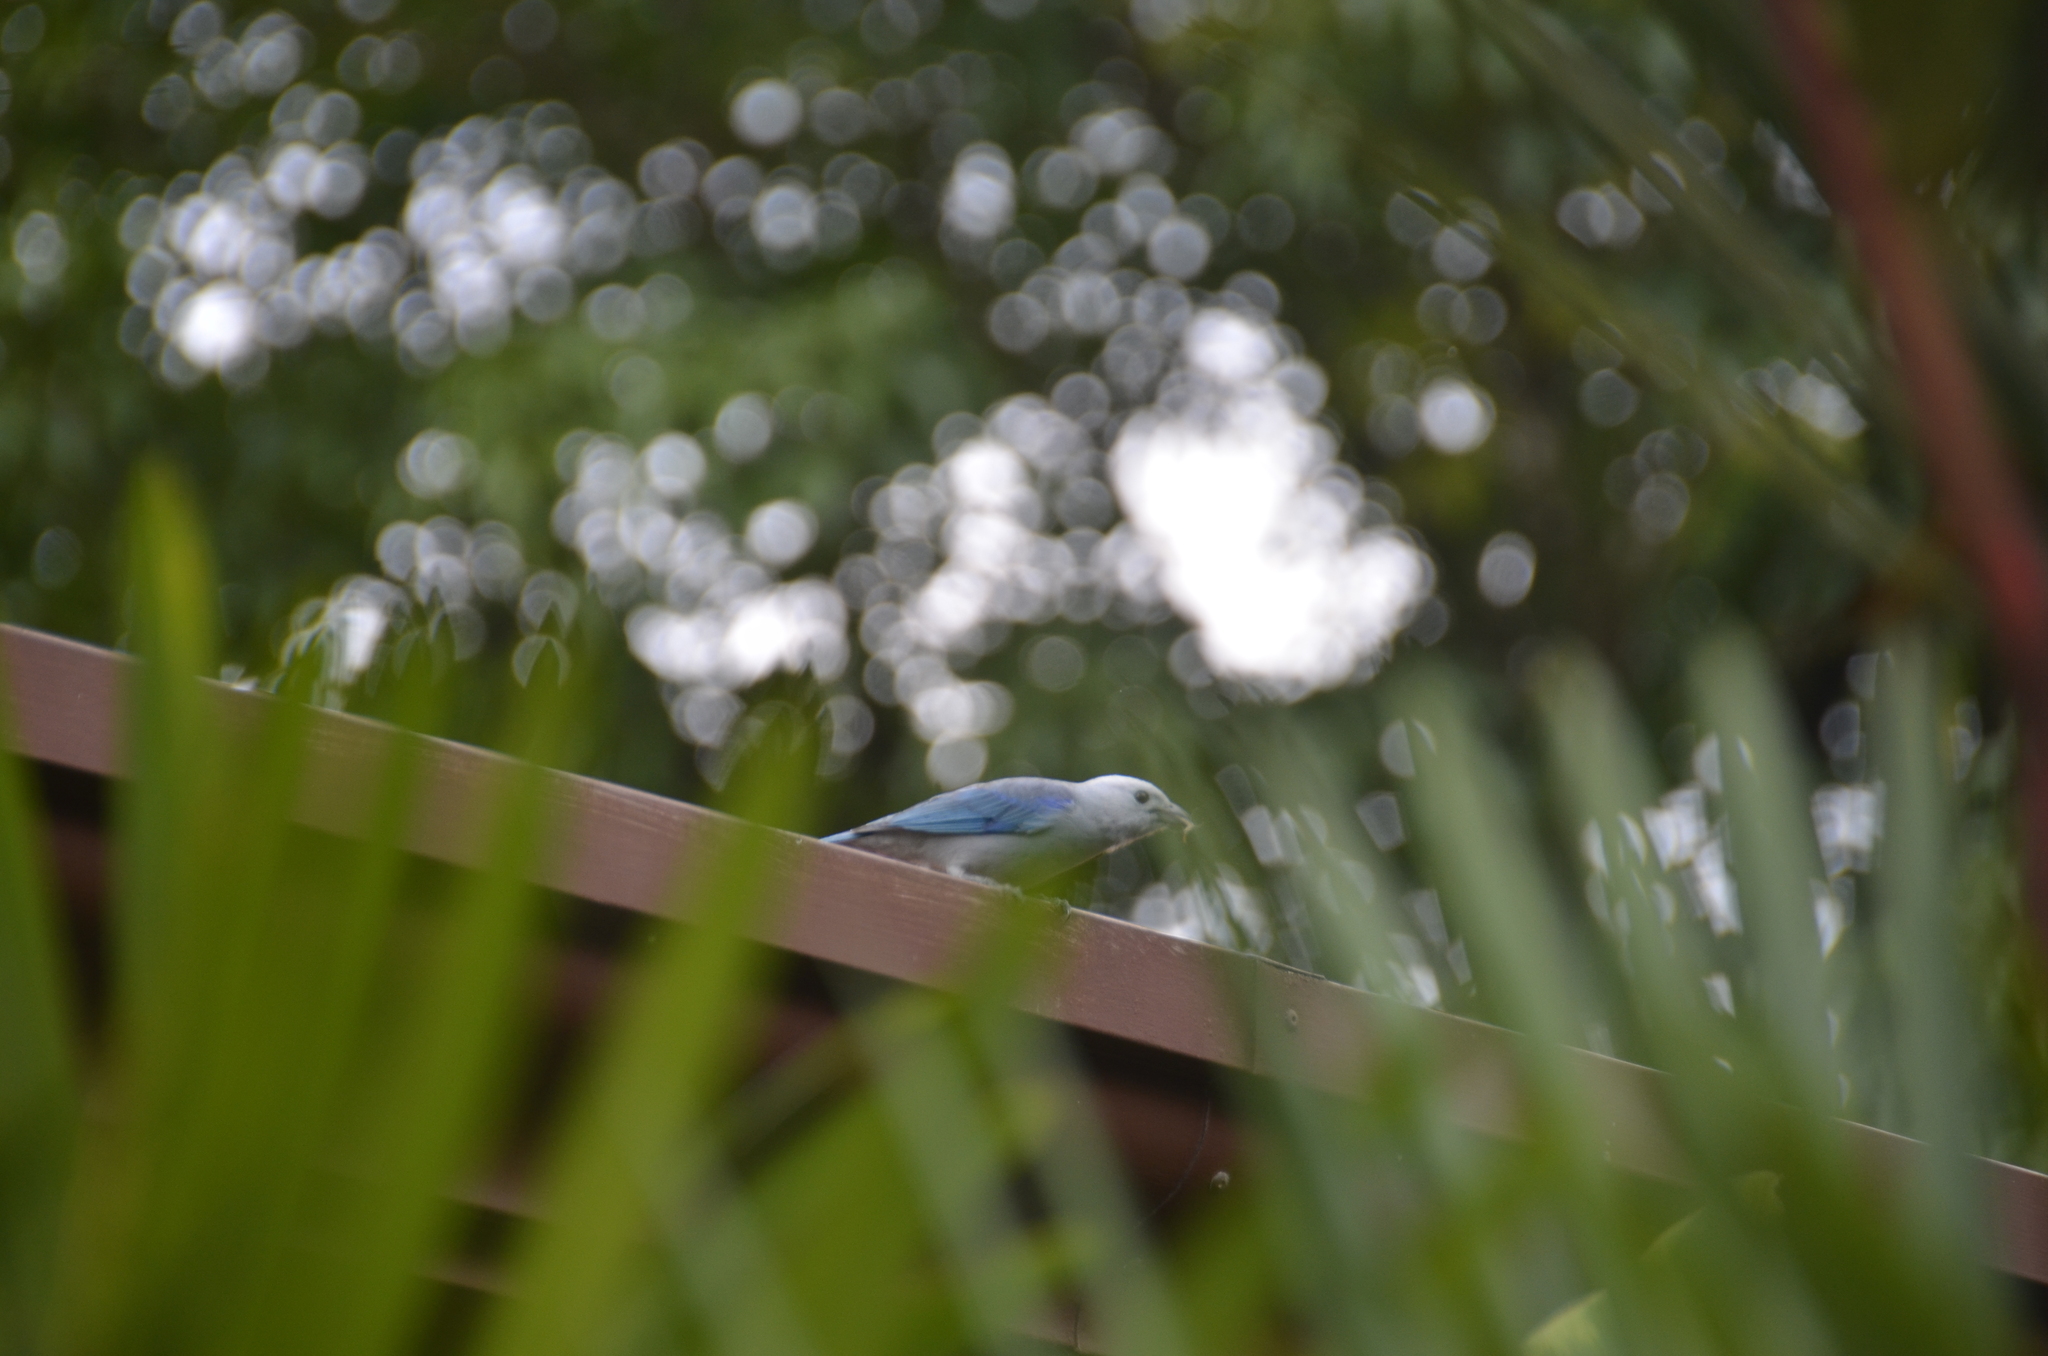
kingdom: Animalia
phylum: Chordata
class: Aves
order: Passeriformes
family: Thraupidae
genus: Thraupis
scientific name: Thraupis episcopus
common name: Blue-grey tanager
